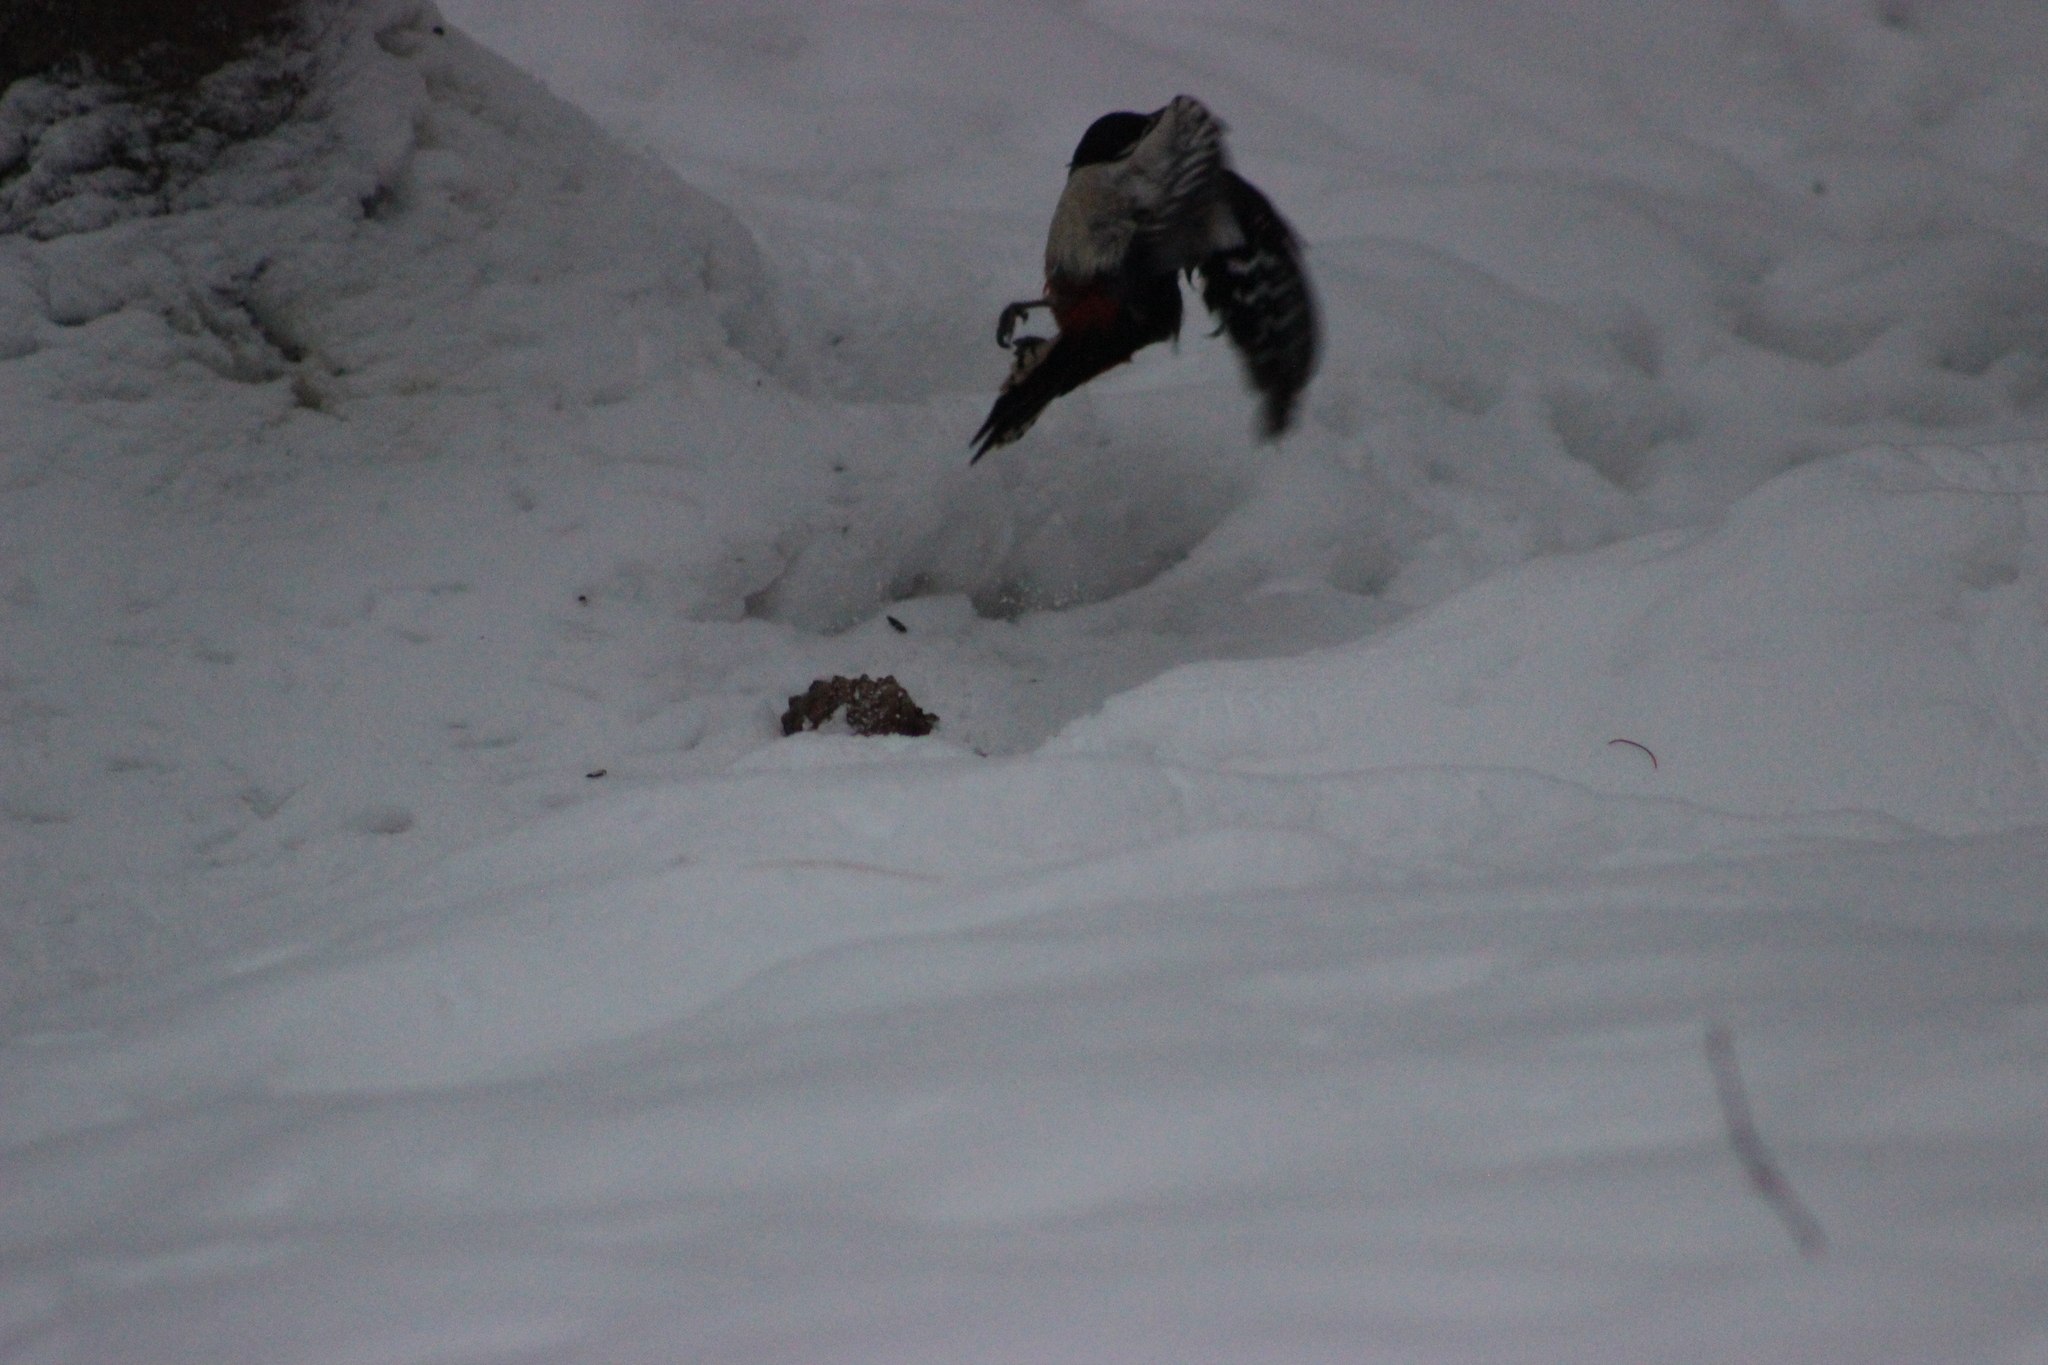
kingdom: Animalia
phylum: Chordata
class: Aves
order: Piciformes
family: Picidae
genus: Dendrocopos
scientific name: Dendrocopos major
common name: Great spotted woodpecker
